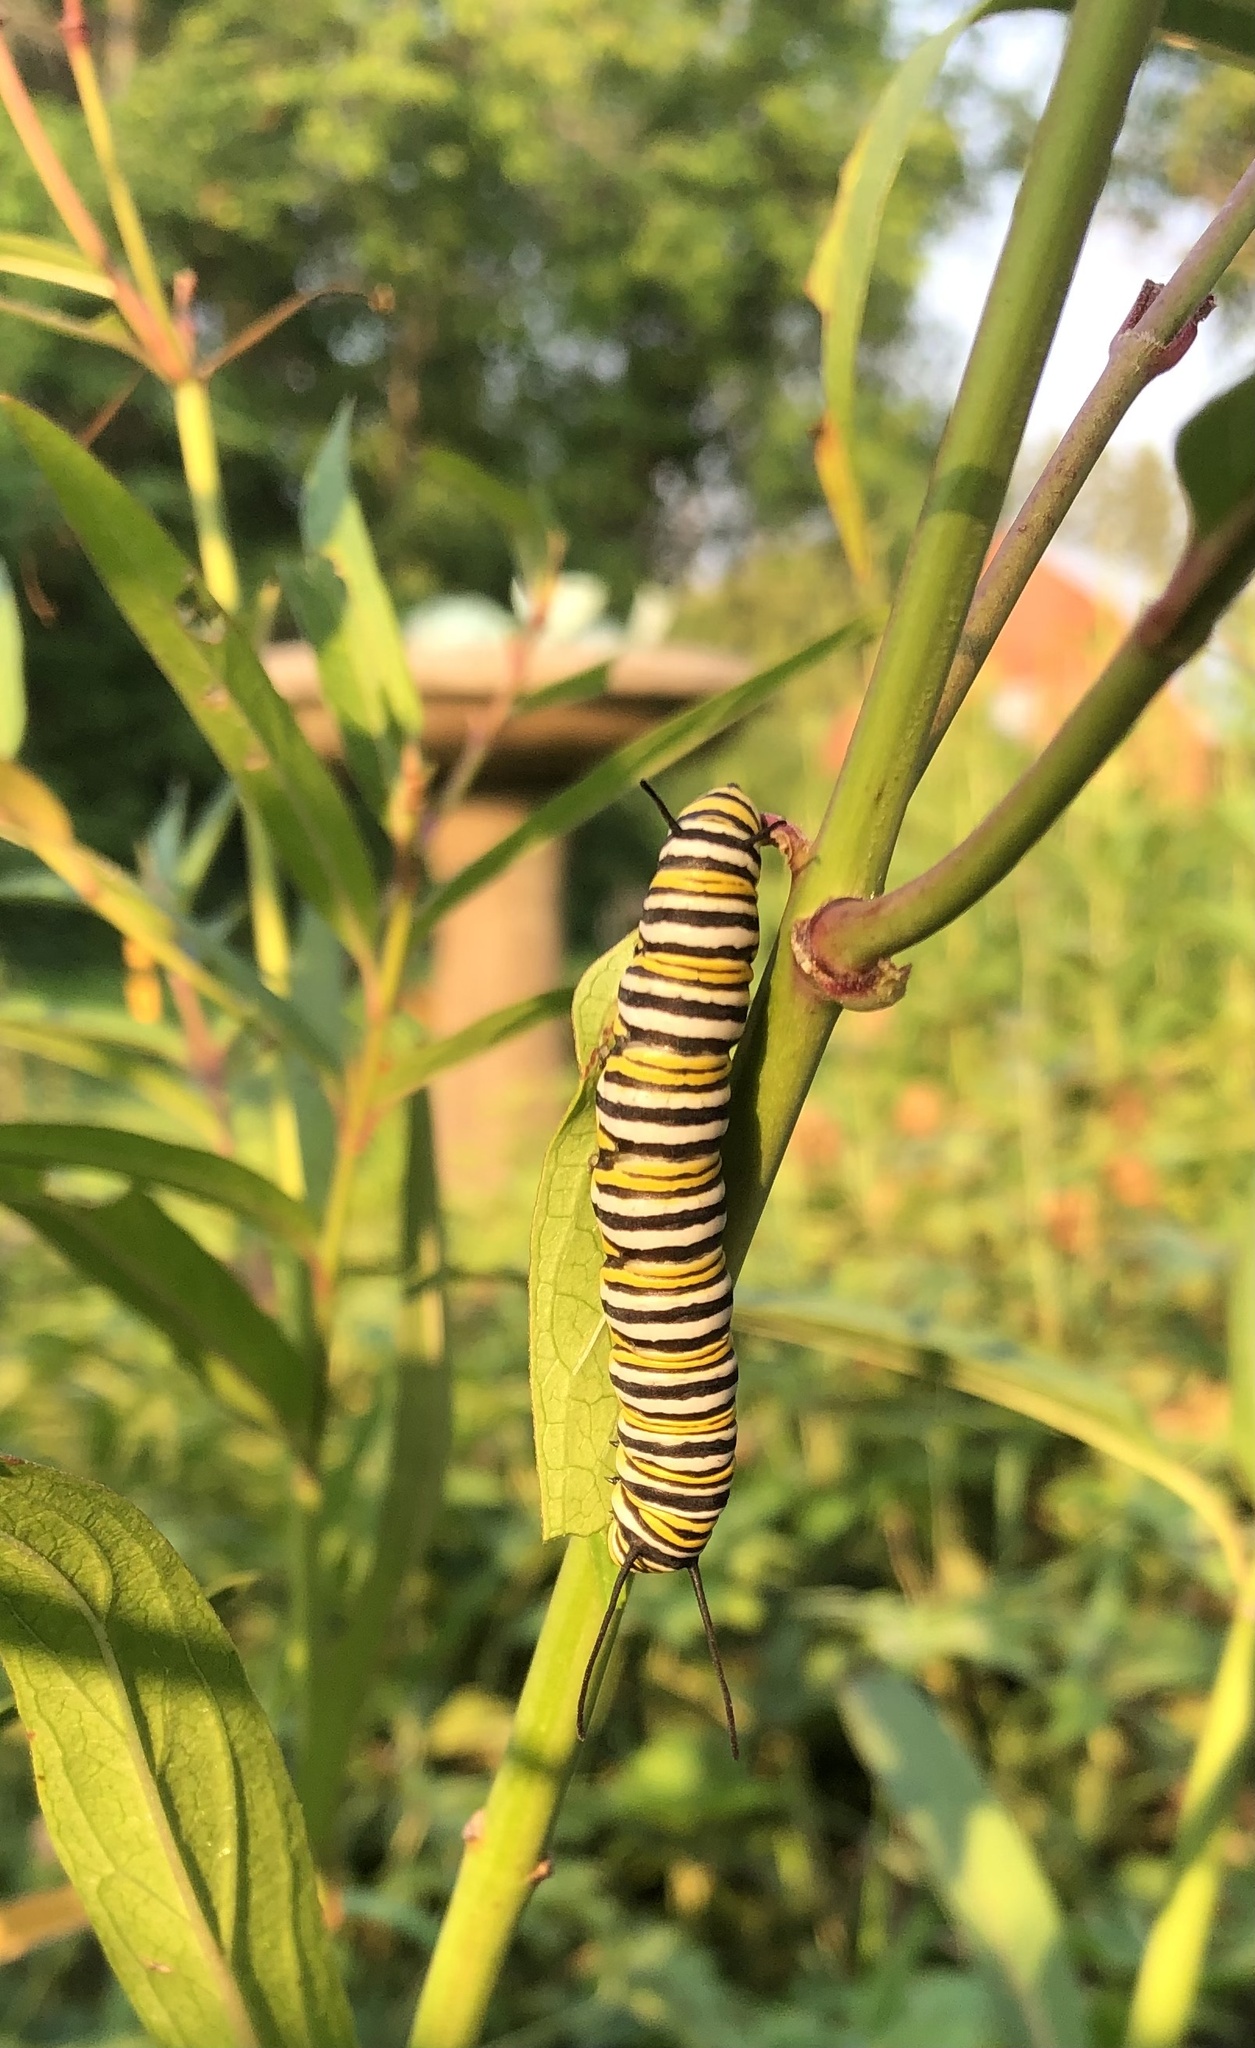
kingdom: Animalia
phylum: Arthropoda
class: Insecta
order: Lepidoptera
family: Nymphalidae
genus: Danaus
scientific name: Danaus plexippus
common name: Monarch
